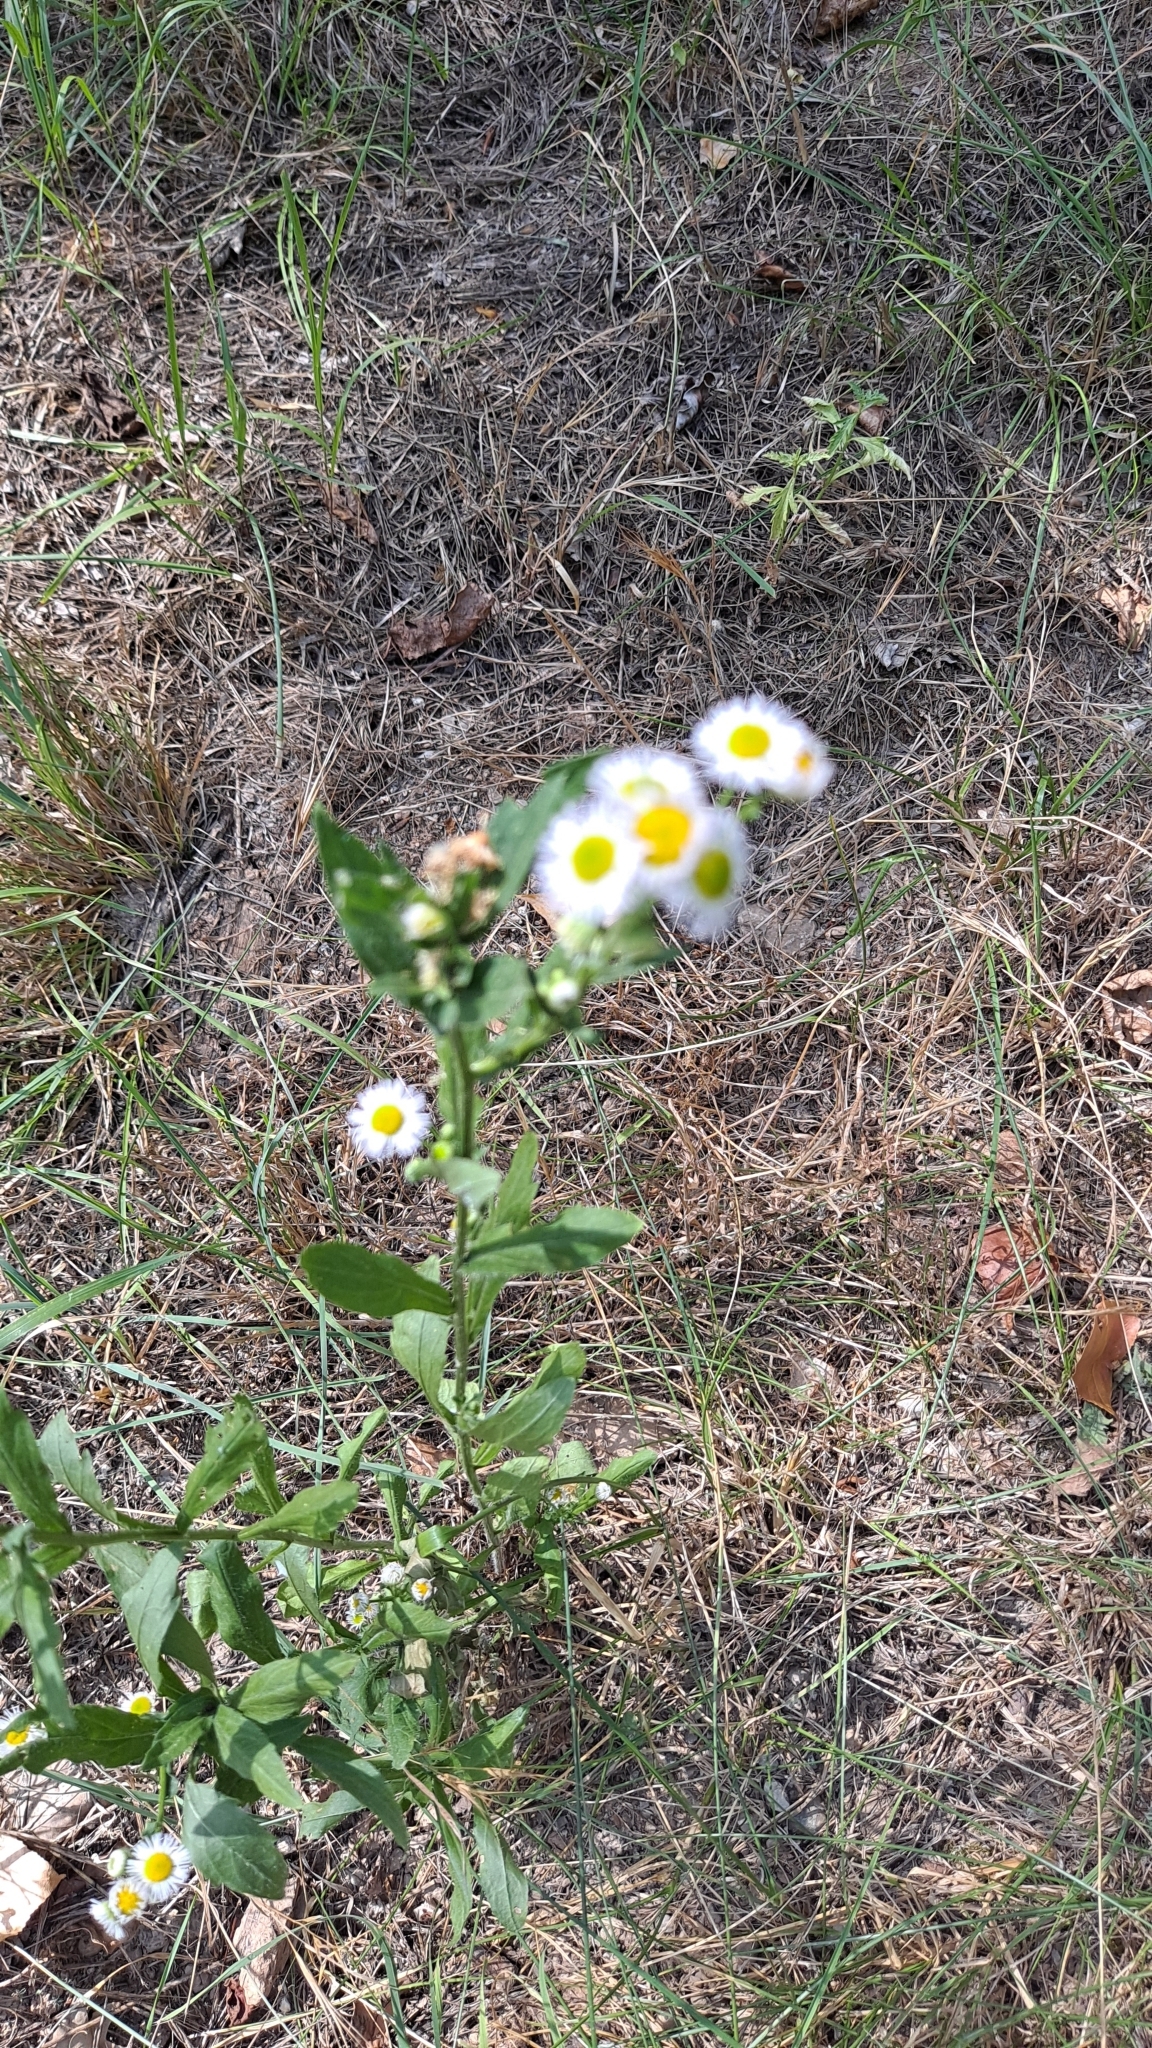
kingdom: Plantae
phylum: Tracheophyta
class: Magnoliopsida
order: Asterales
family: Asteraceae
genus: Erigeron
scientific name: Erigeron annuus
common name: Tall fleabane
